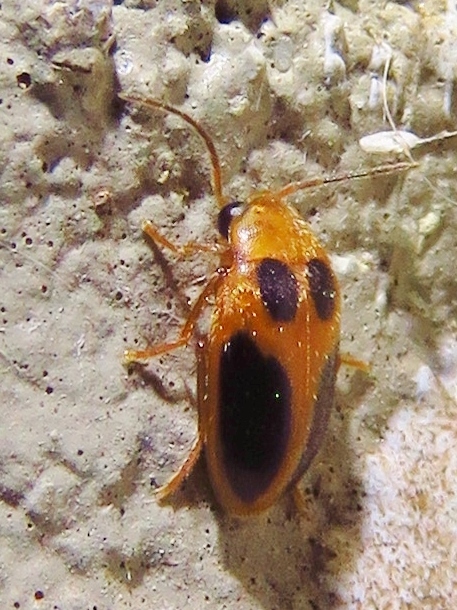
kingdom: Animalia
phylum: Arthropoda
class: Insecta
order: Coleoptera
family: Scirtidae
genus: Sacodes
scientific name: Sacodes pulchella
